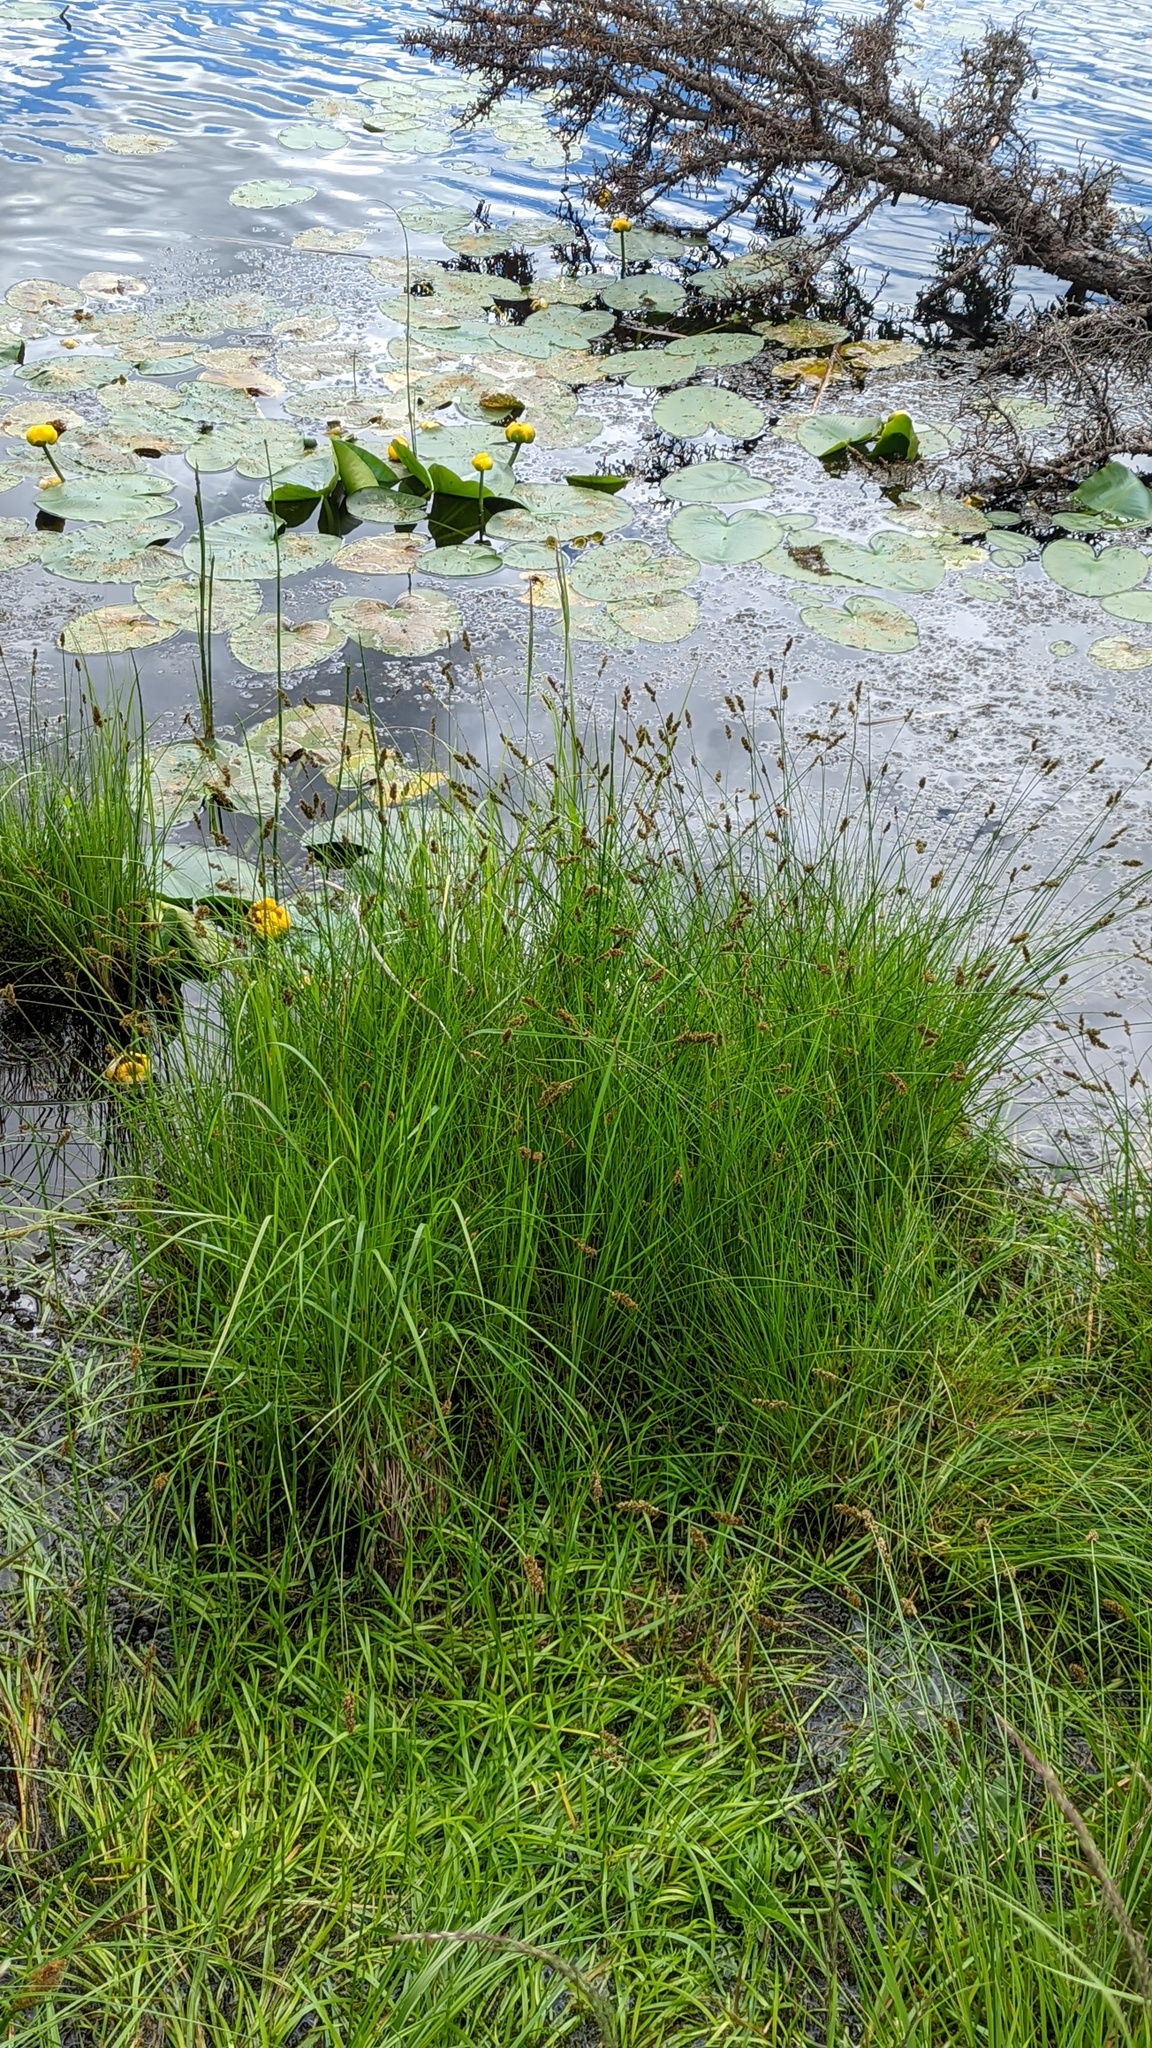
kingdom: Plantae
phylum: Tracheophyta
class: Liliopsida
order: Poales
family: Cyperaceae
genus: Carex
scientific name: Carex diandra
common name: Lesser tussock-sedge
